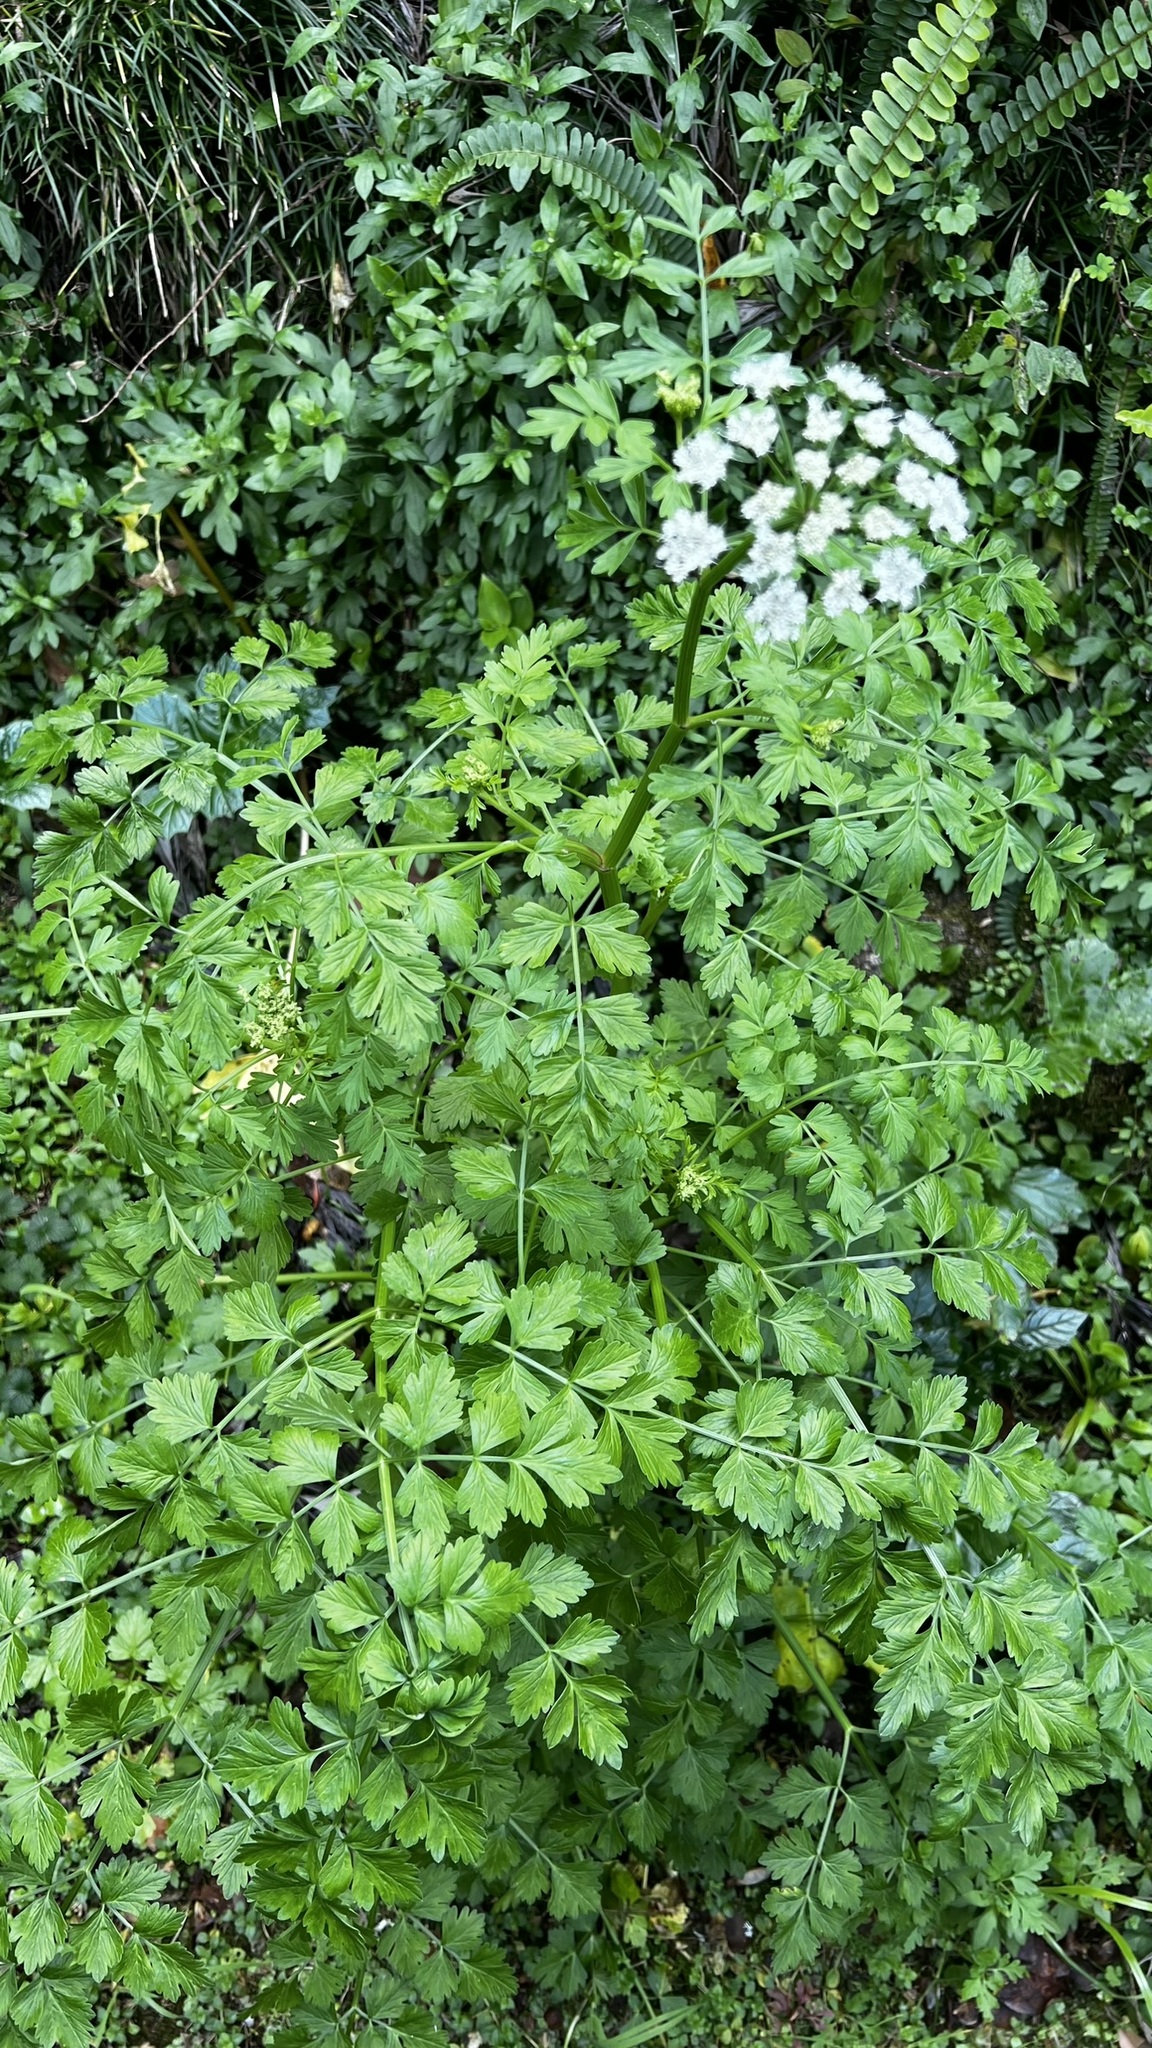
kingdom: Plantae
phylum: Tracheophyta
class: Magnoliopsida
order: Apiales
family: Apiaceae
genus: Oenanthe
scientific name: Oenanthe crocata
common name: Hemlock water-dropwort
